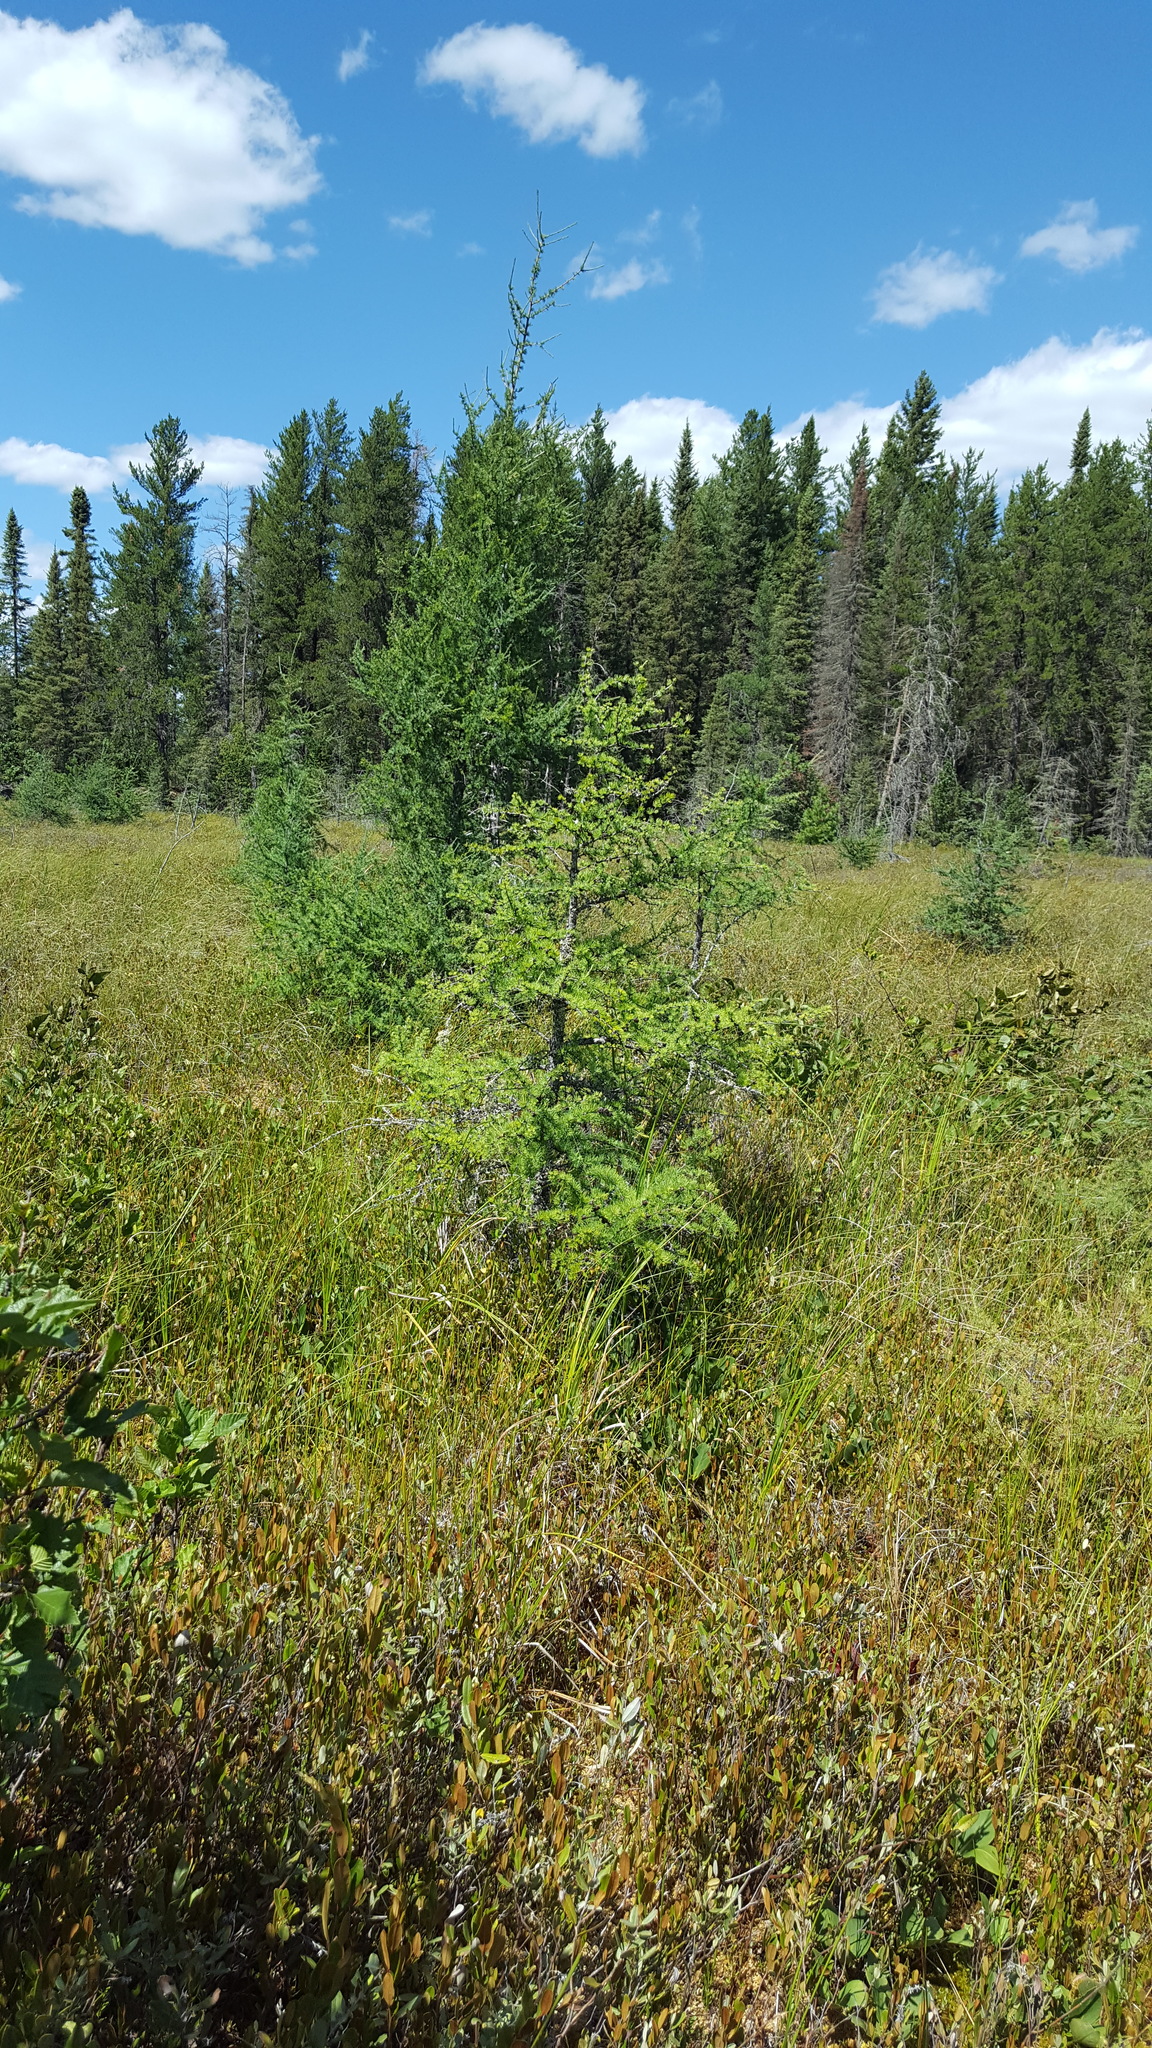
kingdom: Plantae
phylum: Tracheophyta
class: Pinopsida
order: Pinales
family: Pinaceae
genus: Larix
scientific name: Larix laricina
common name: American larch
